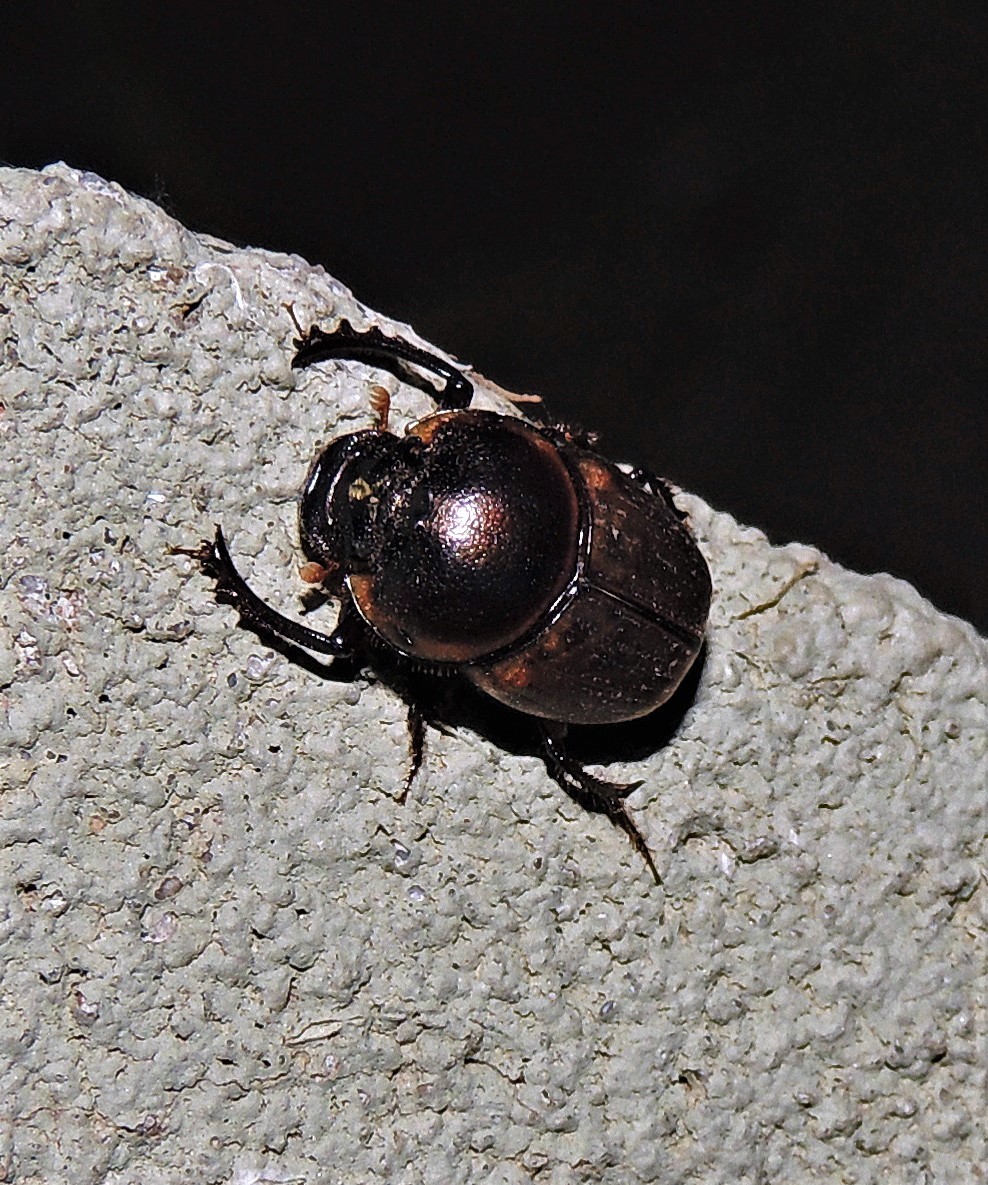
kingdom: Animalia
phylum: Arthropoda
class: Insecta
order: Coleoptera
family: Scarabaeidae
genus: Digitonthophagus
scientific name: Digitonthophagus gazella
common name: Brown dung beetle
